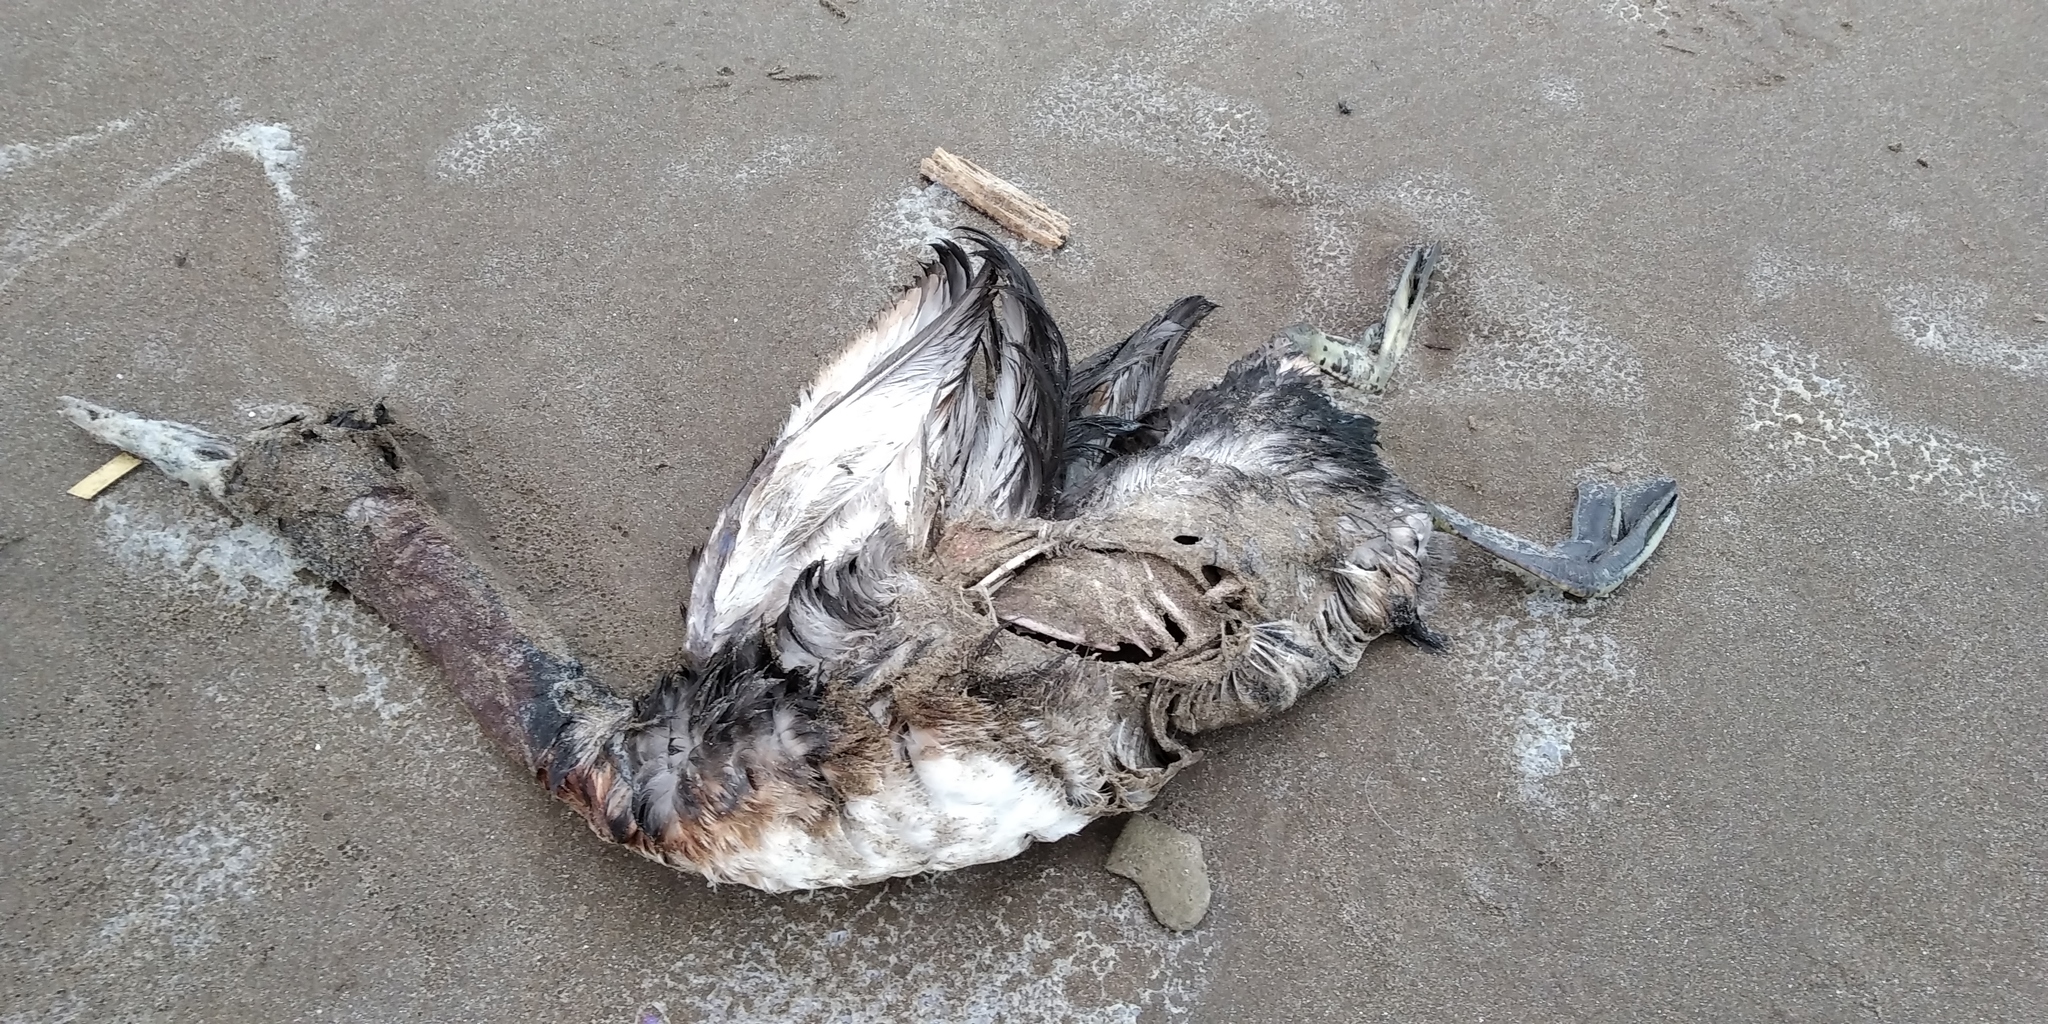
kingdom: Animalia
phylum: Chordata
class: Aves
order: Podicipediformes
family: Podicipedidae
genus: Podiceps
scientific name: Podiceps major
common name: Great grebe
